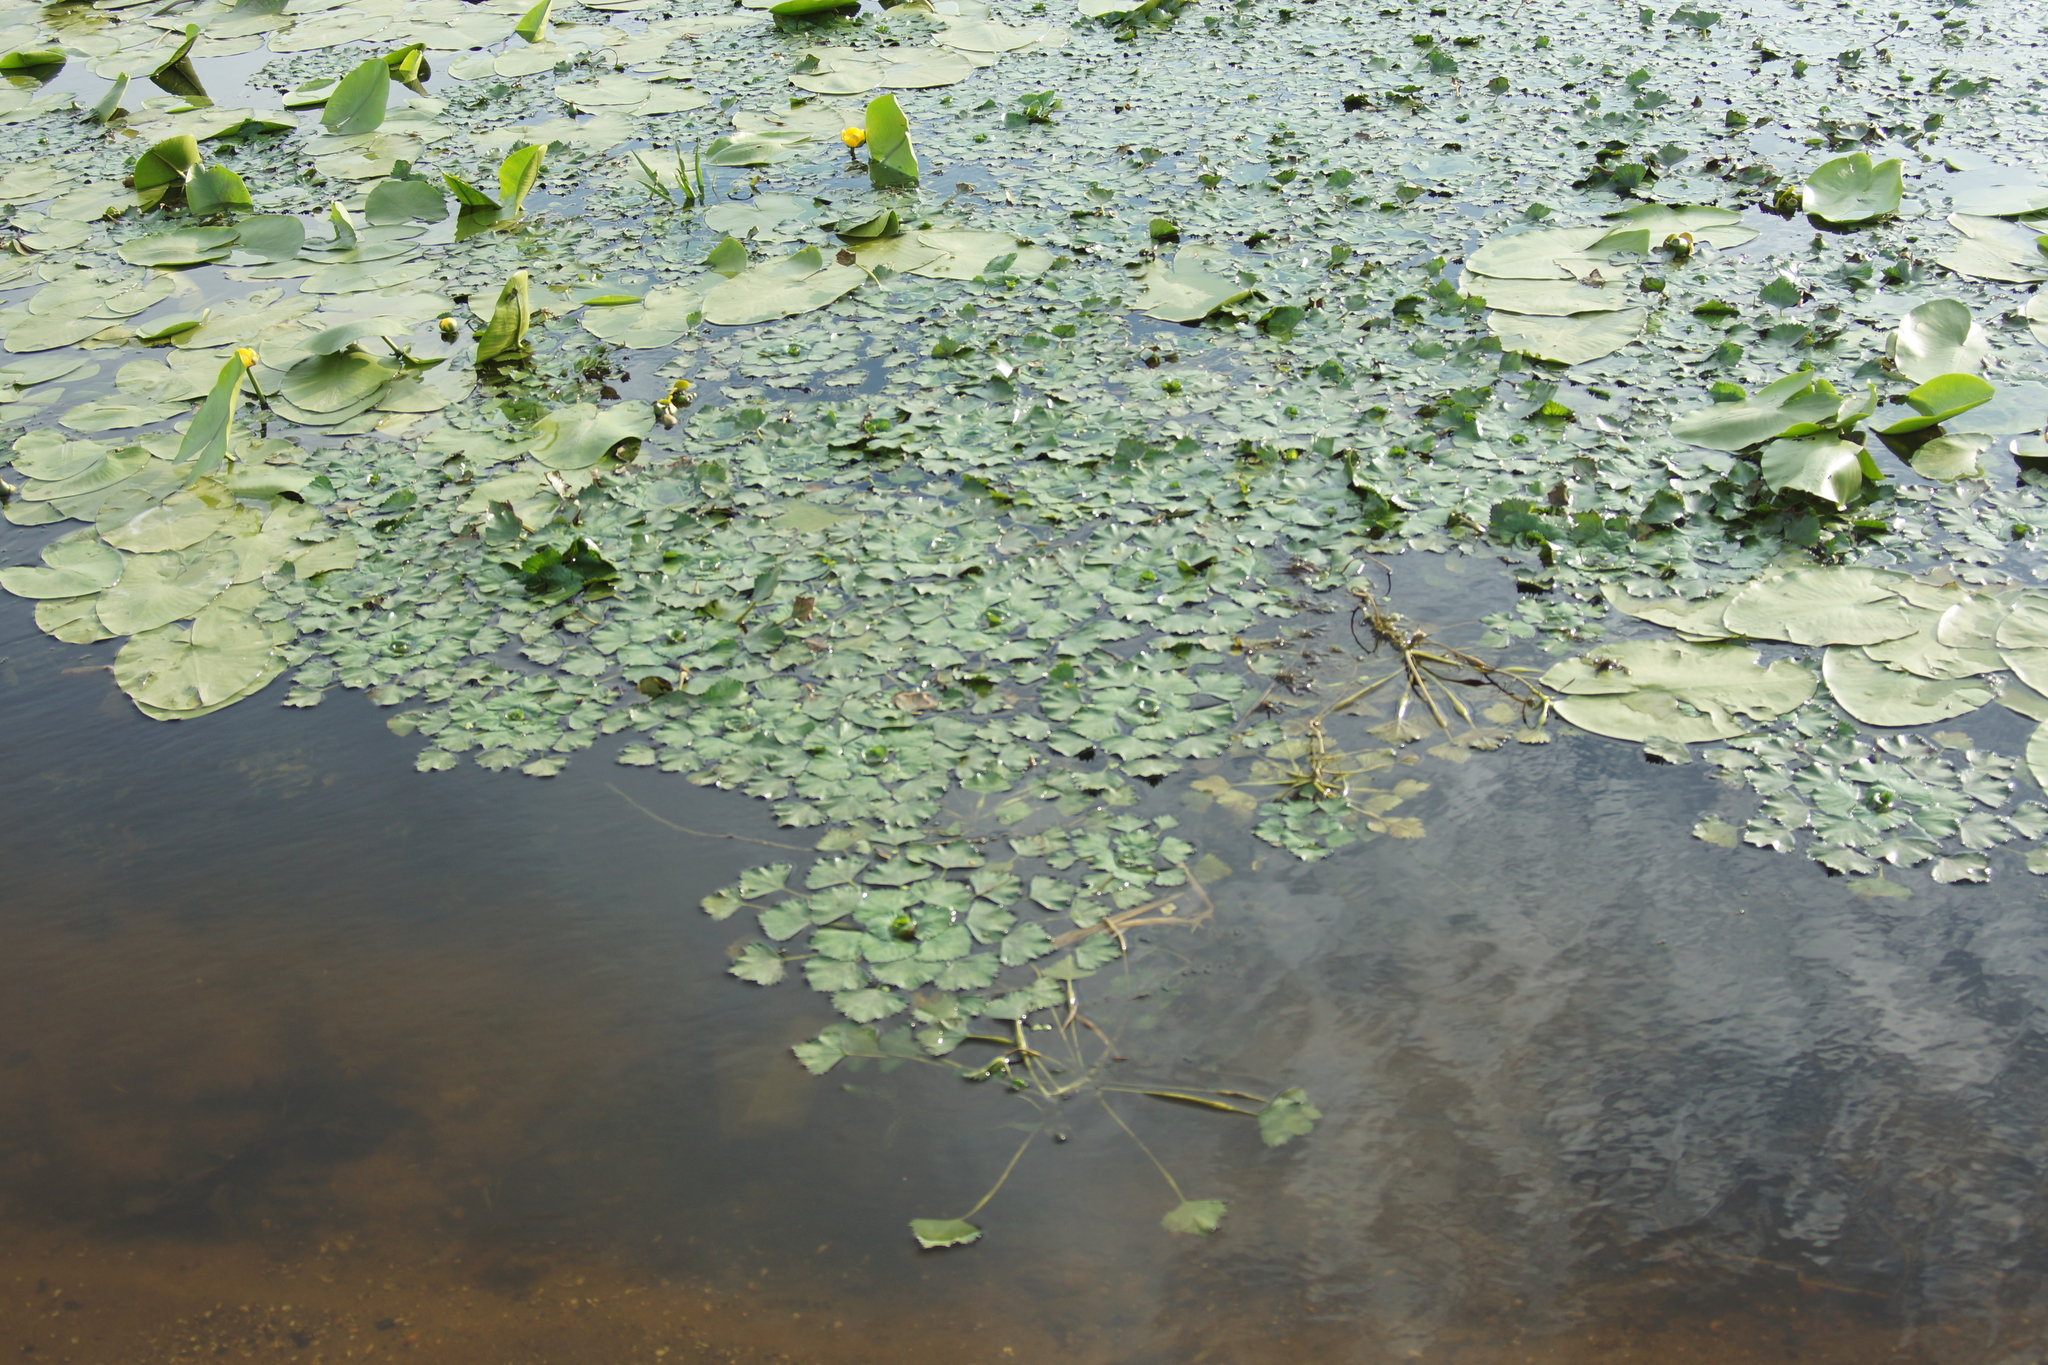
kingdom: Plantae
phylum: Tracheophyta
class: Magnoliopsida
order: Myrtales
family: Lythraceae
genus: Trapa
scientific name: Trapa natans
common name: Water chestnut
